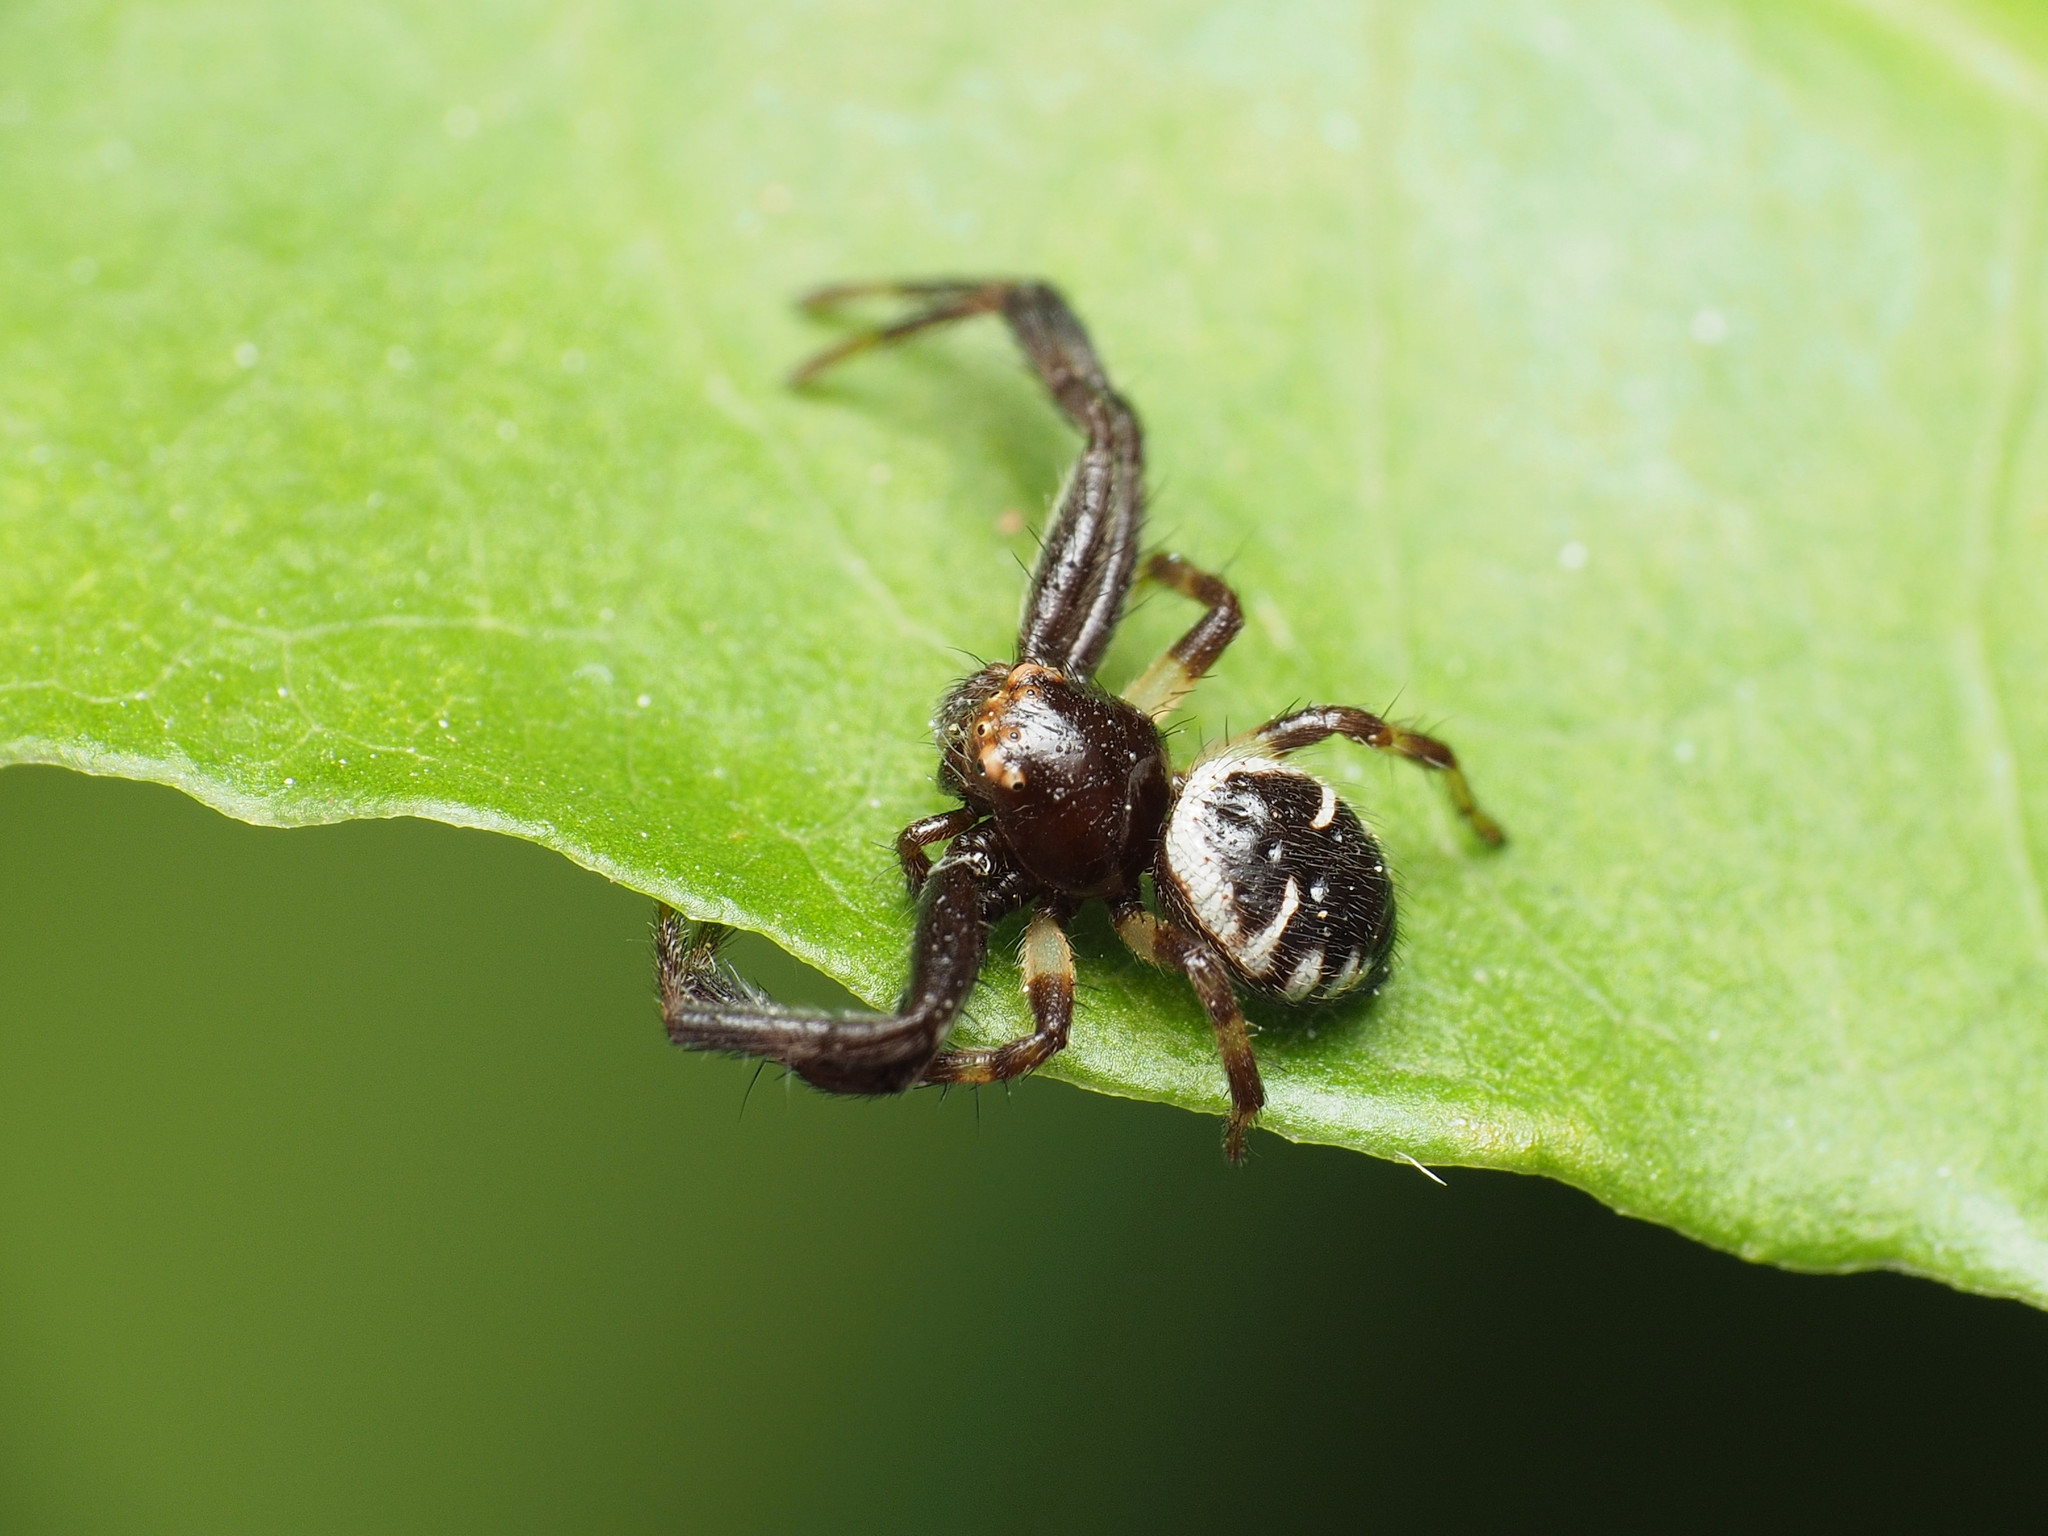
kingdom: Animalia
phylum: Arthropoda
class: Arachnida
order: Araneae
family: Thomisidae
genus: Synema
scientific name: Synema globosum
